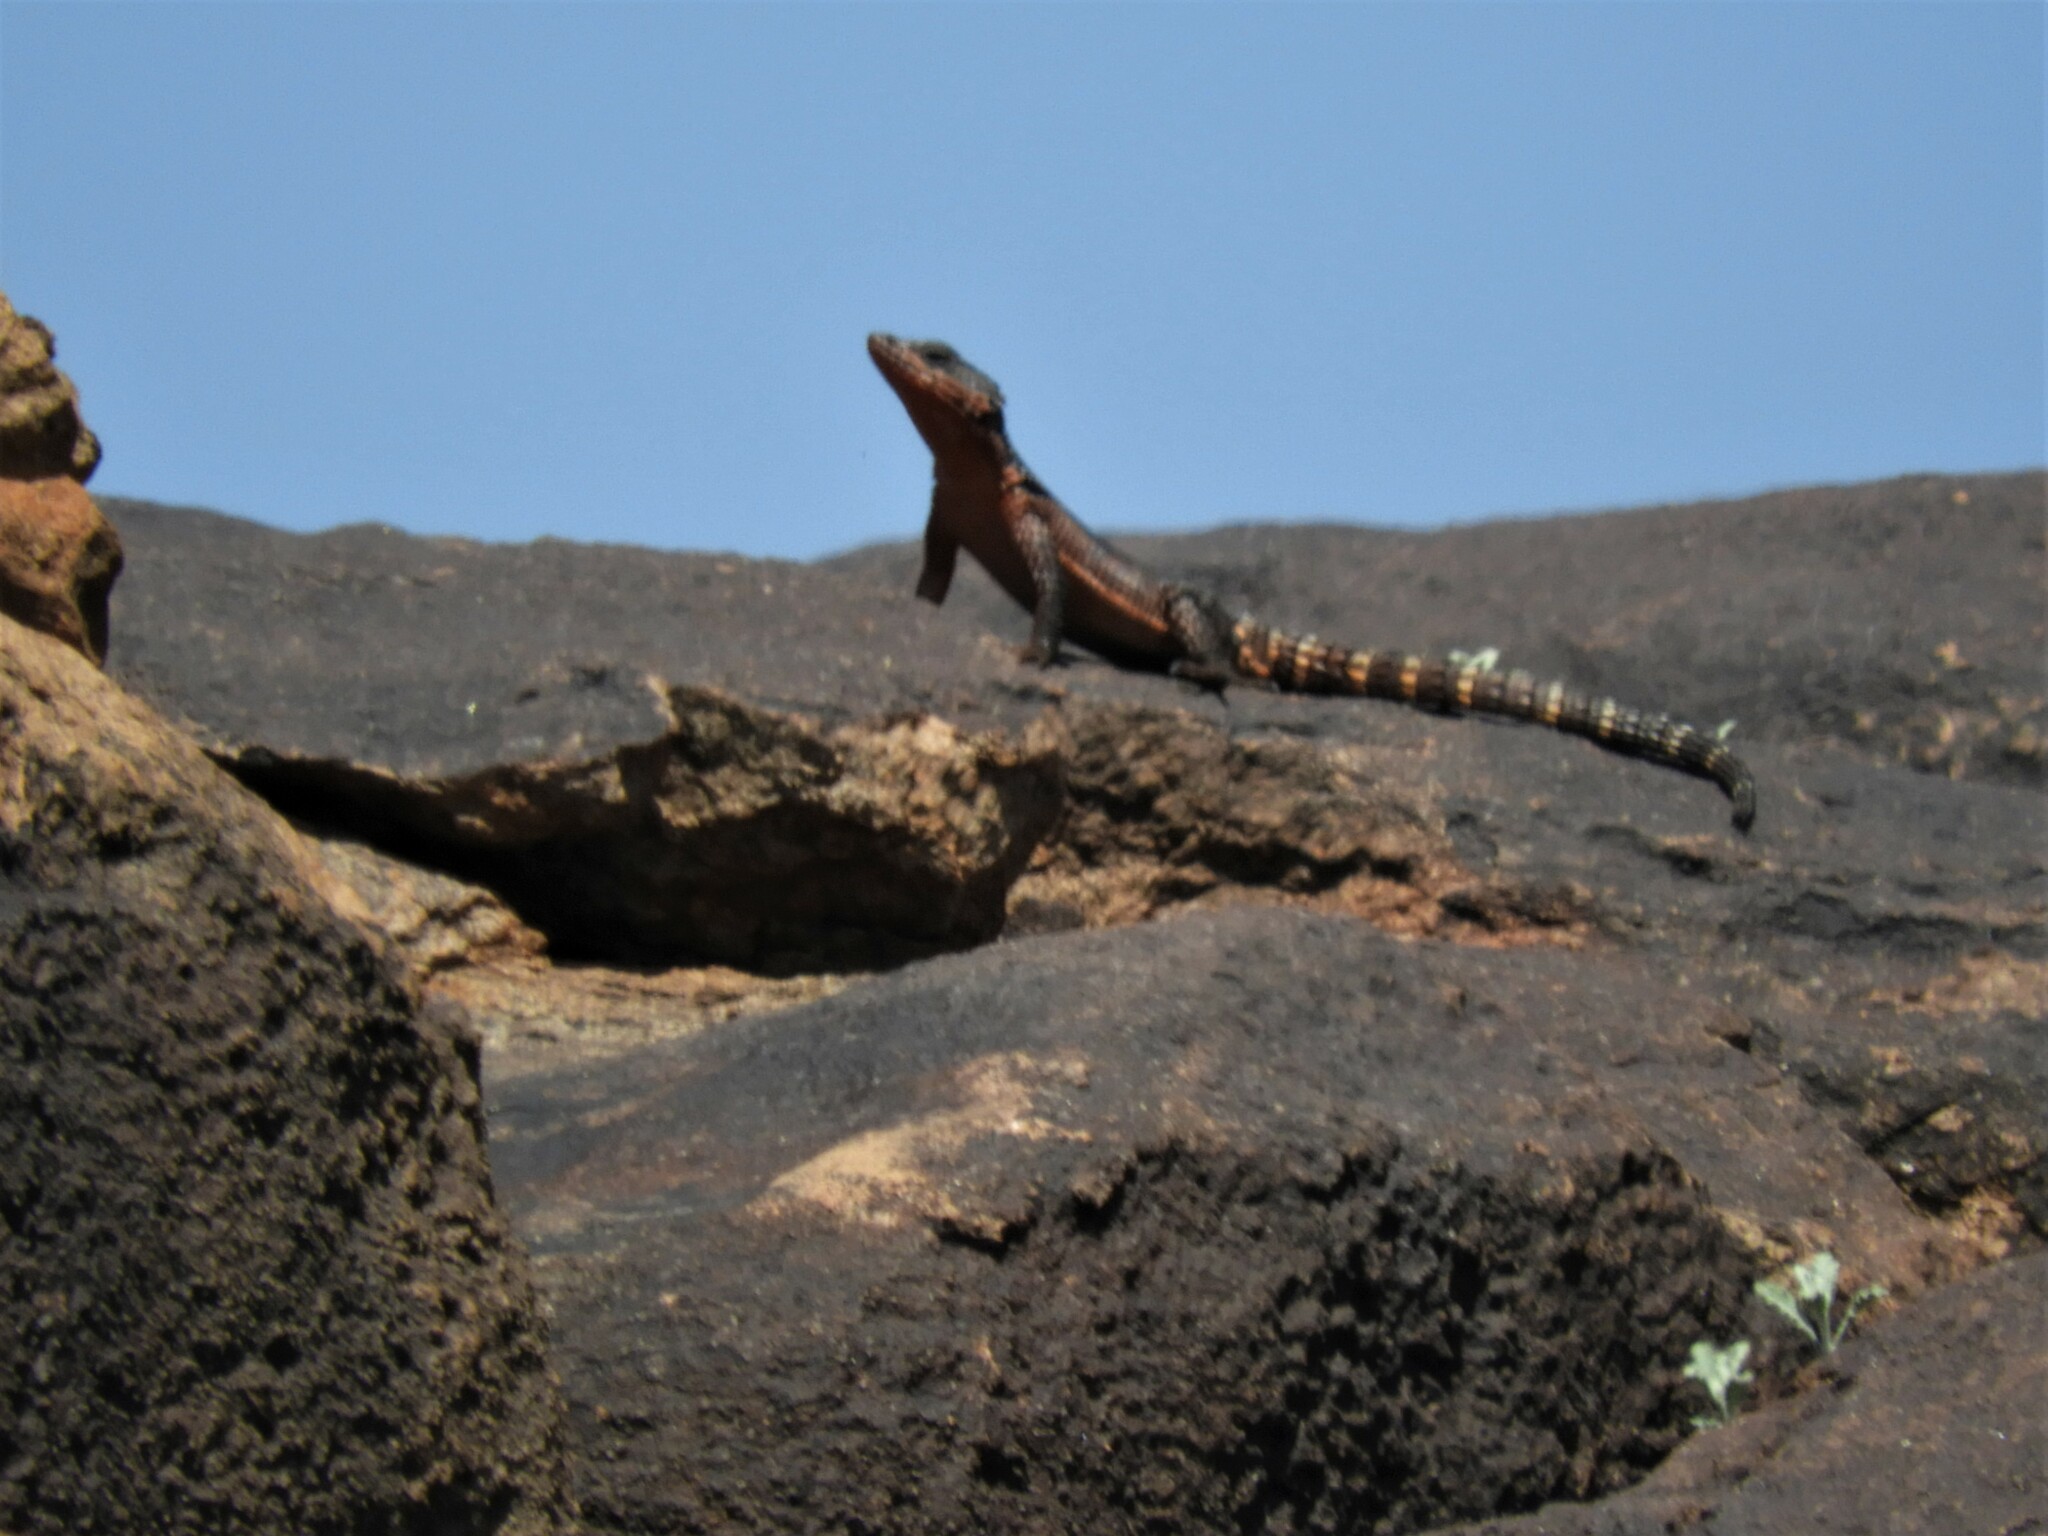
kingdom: Animalia
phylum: Chordata
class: Squamata
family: Cordylidae
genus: Karusasaurus
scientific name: Karusasaurus polyzonus
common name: Karoo girdled lizard
